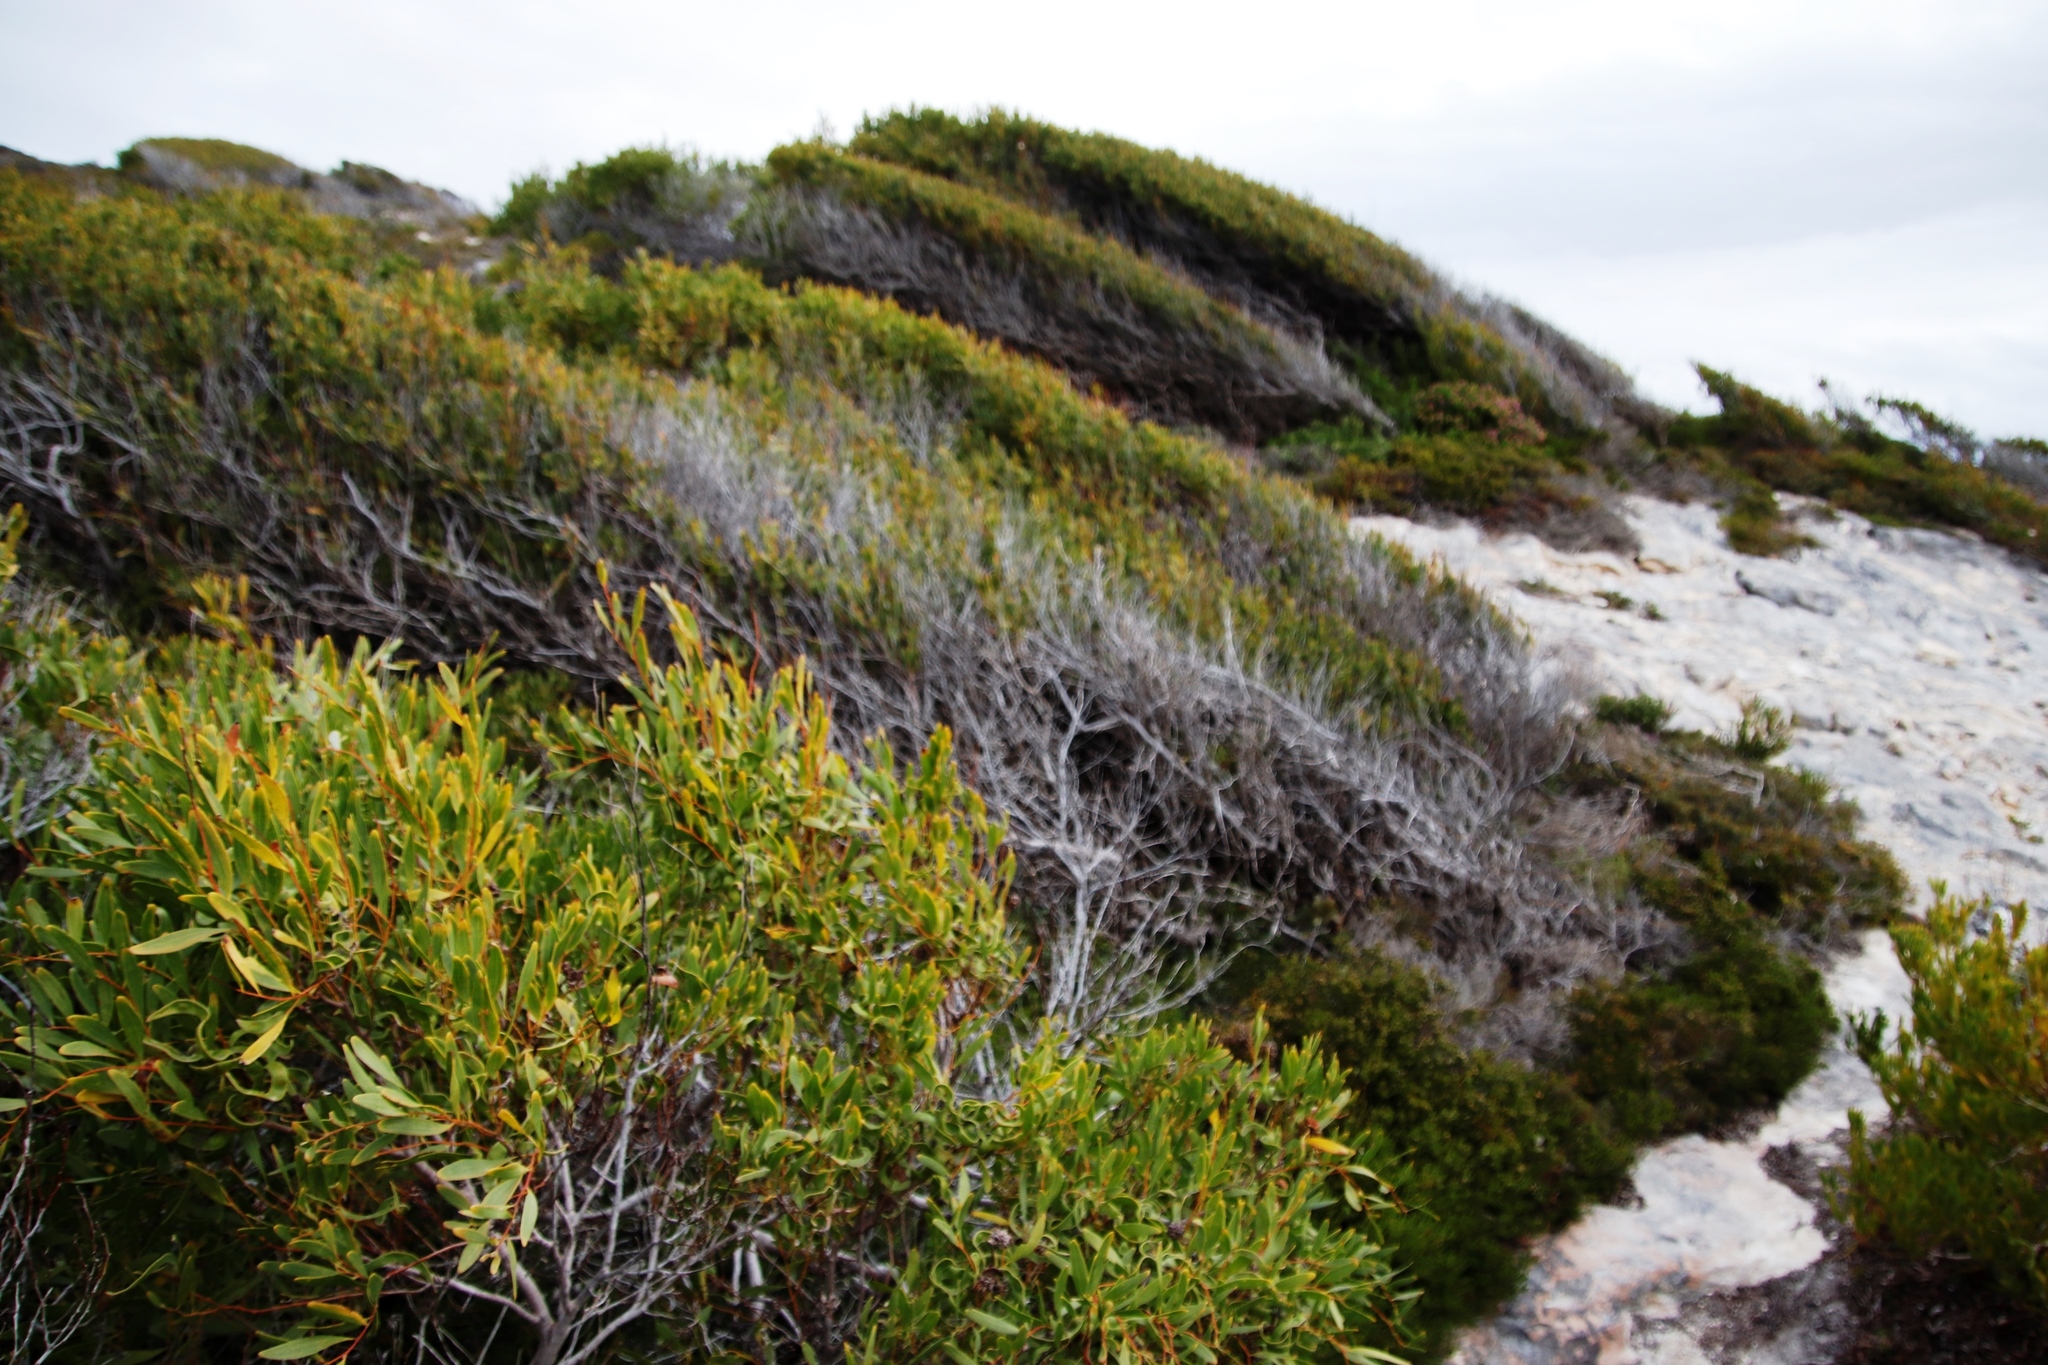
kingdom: Plantae
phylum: Tracheophyta
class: Magnoliopsida
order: Fabales
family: Fabaceae
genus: Acacia
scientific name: Acacia cyclops
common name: Coastal wattle
